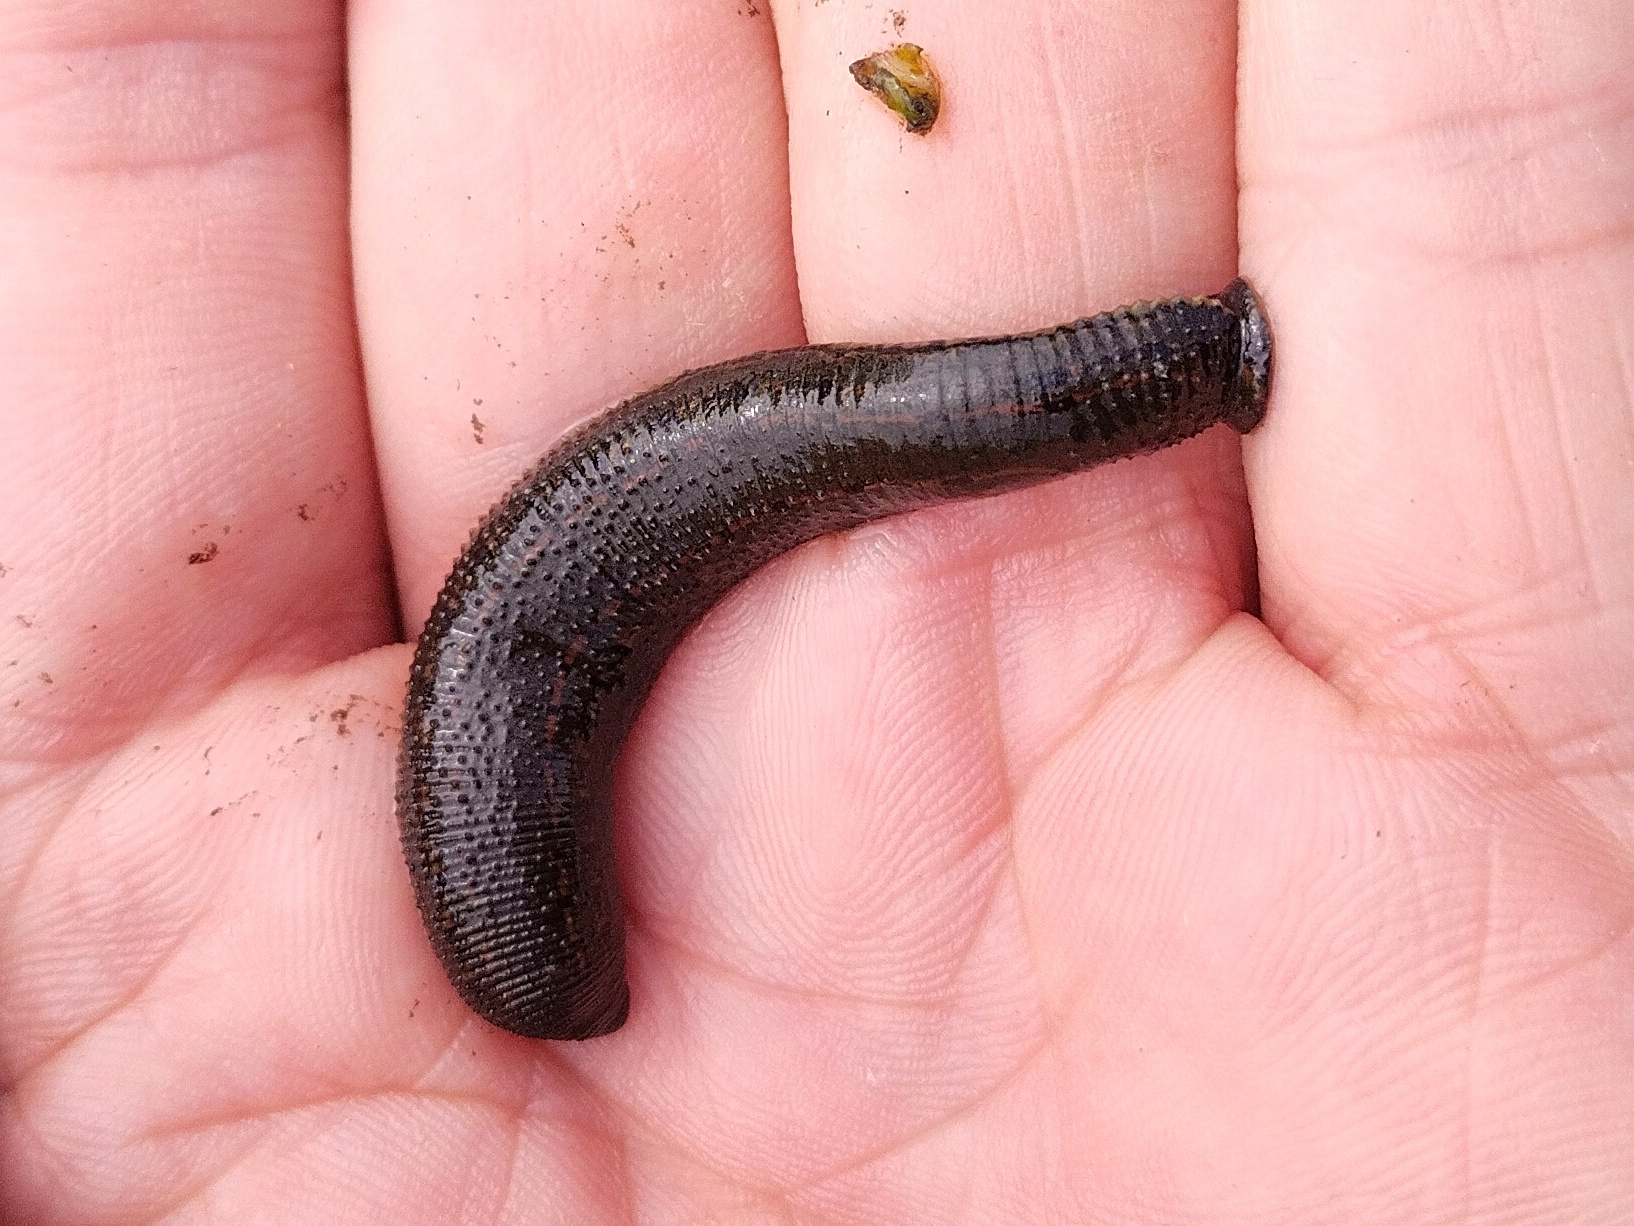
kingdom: Animalia
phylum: Annelida
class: Clitellata
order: Arhynchobdellida
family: Hirudinidae
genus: Hirudo
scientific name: Hirudo medicinalis
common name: Medicinal leech
